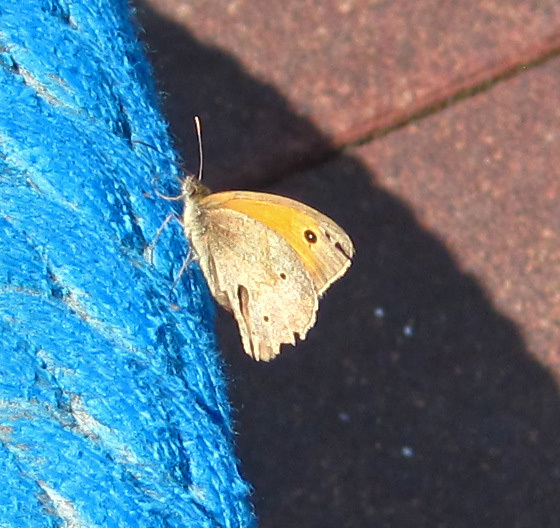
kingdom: Animalia
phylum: Arthropoda
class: Insecta
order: Lepidoptera
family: Nymphalidae
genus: Maniola
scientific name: Maniola jurtina
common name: Meadow brown
